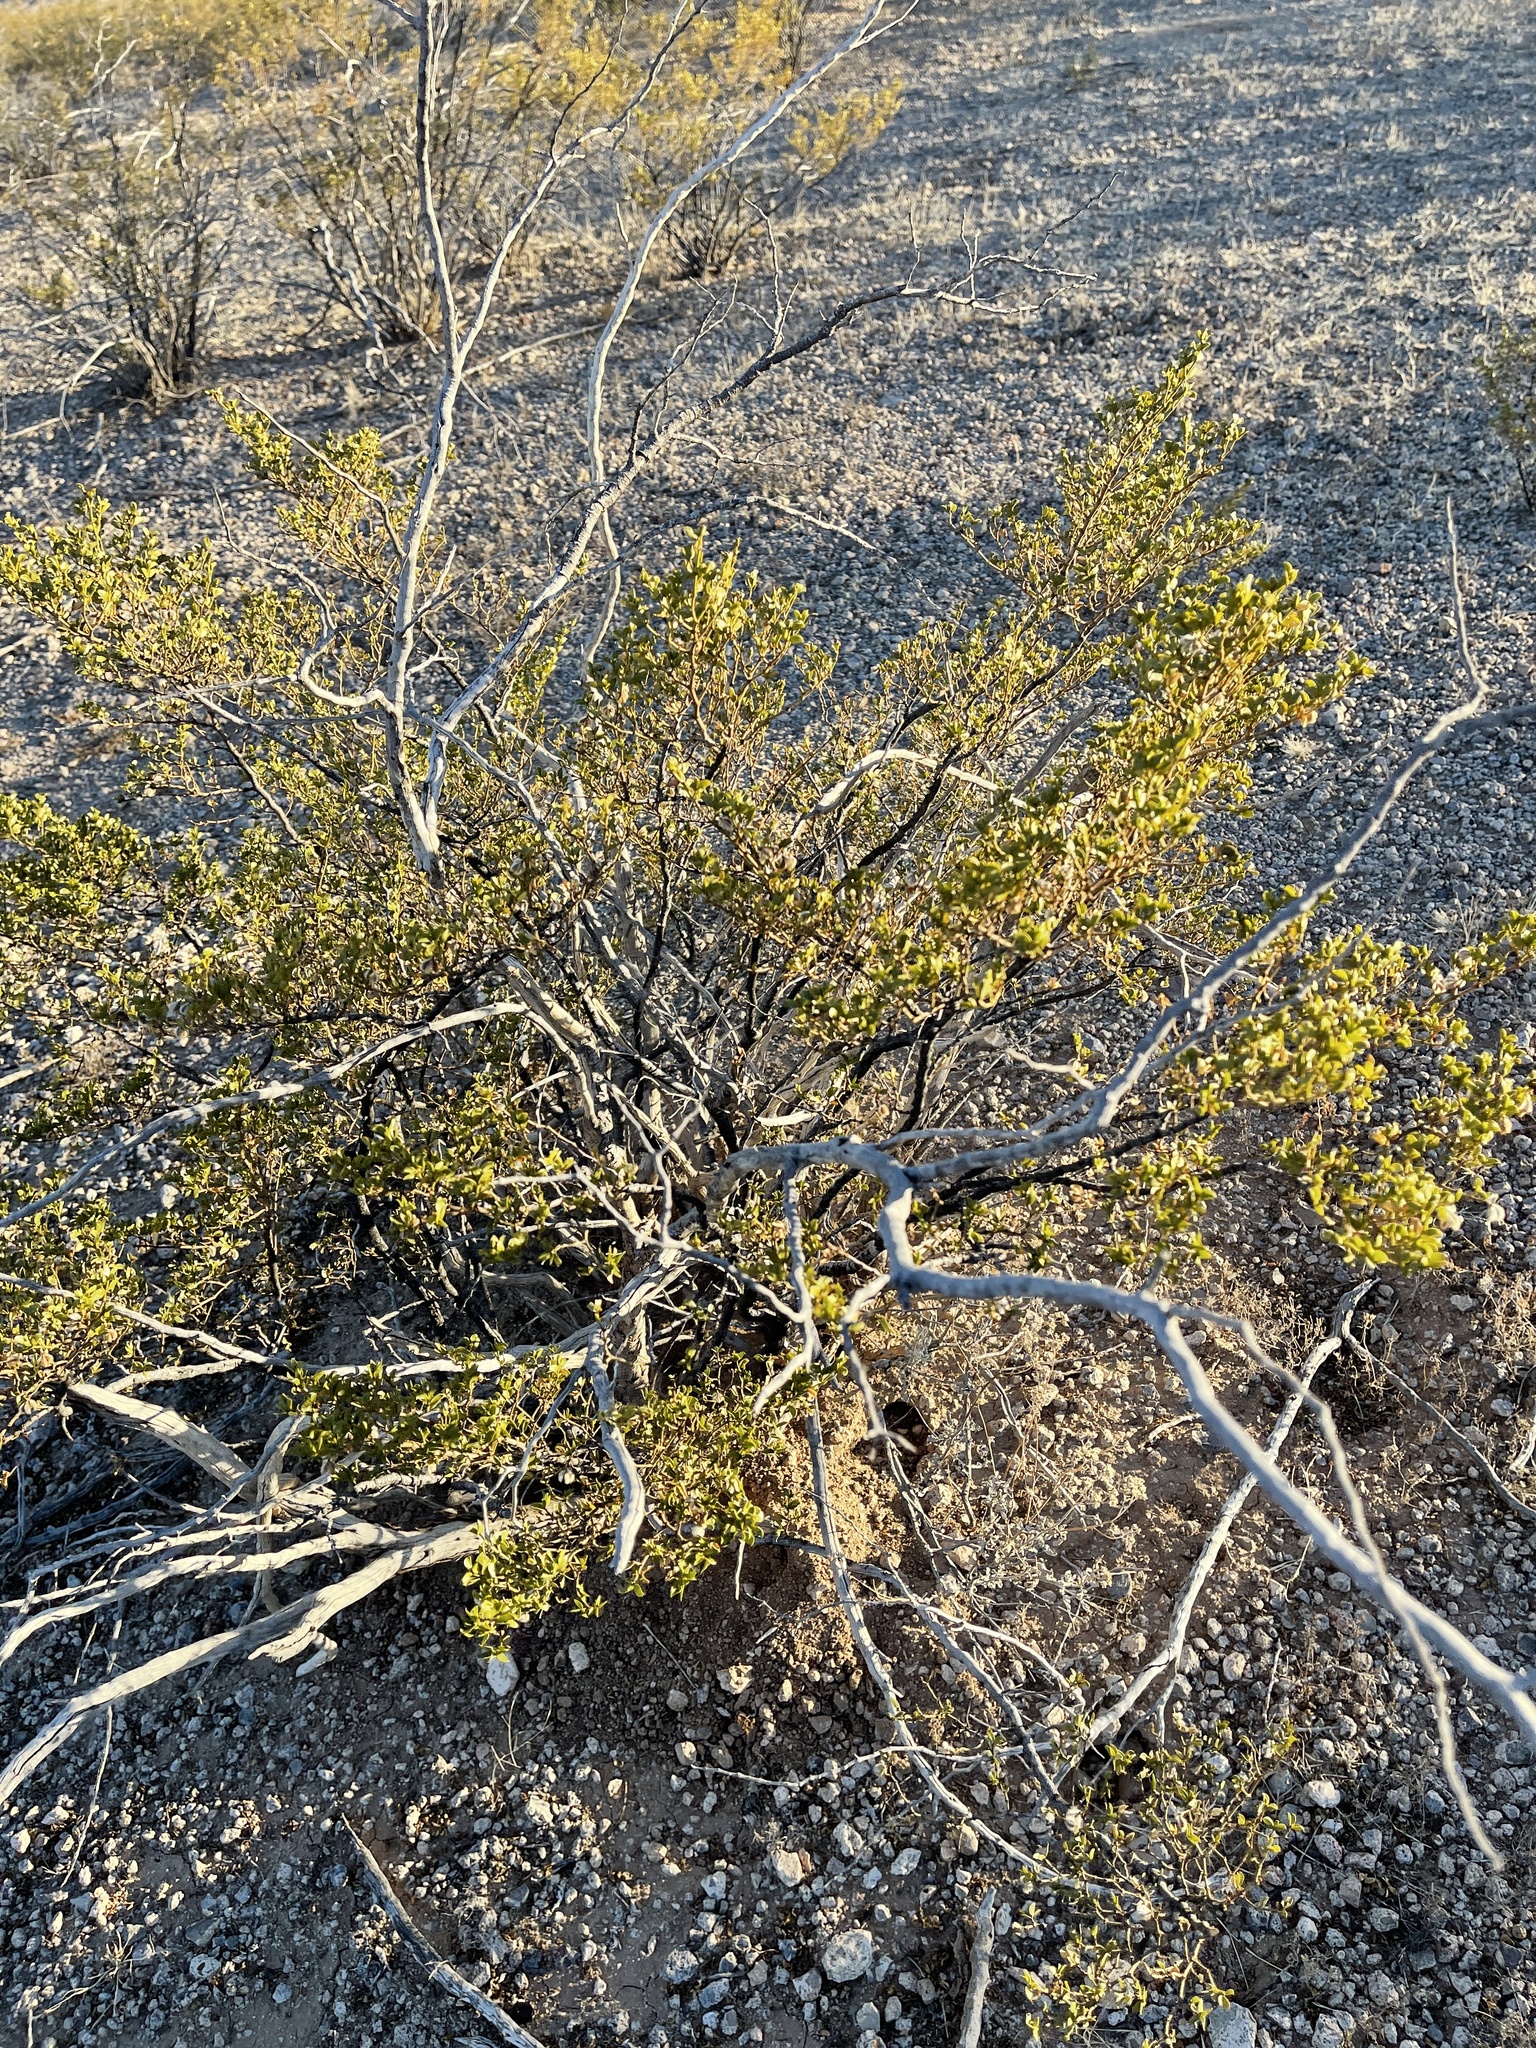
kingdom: Plantae
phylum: Tracheophyta
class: Magnoliopsida
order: Zygophyllales
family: Zygophyllaceae
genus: Larrea
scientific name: Larrea tridentata
